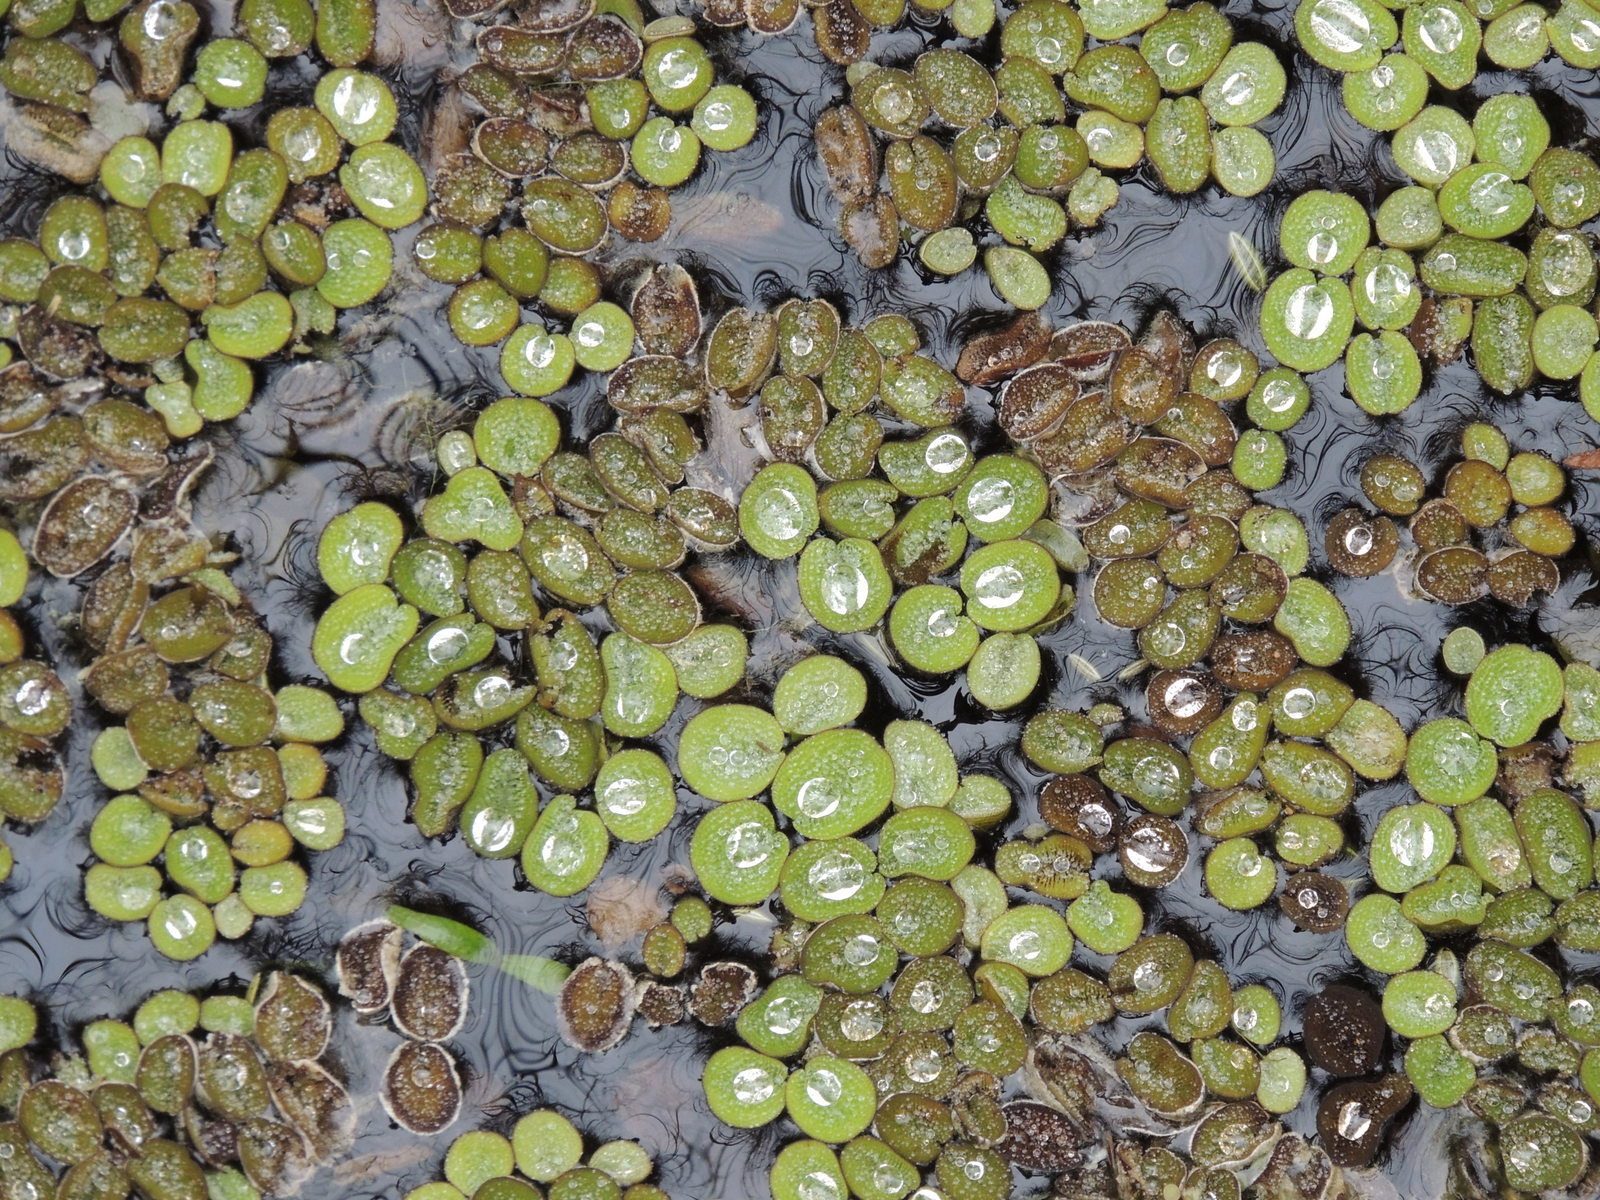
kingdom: Plantae
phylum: Tracheophyta
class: Polypodiopsida
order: Salviniales
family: Salviniaceae
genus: Salvinia
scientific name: Salvinia minima
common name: Water spangles
